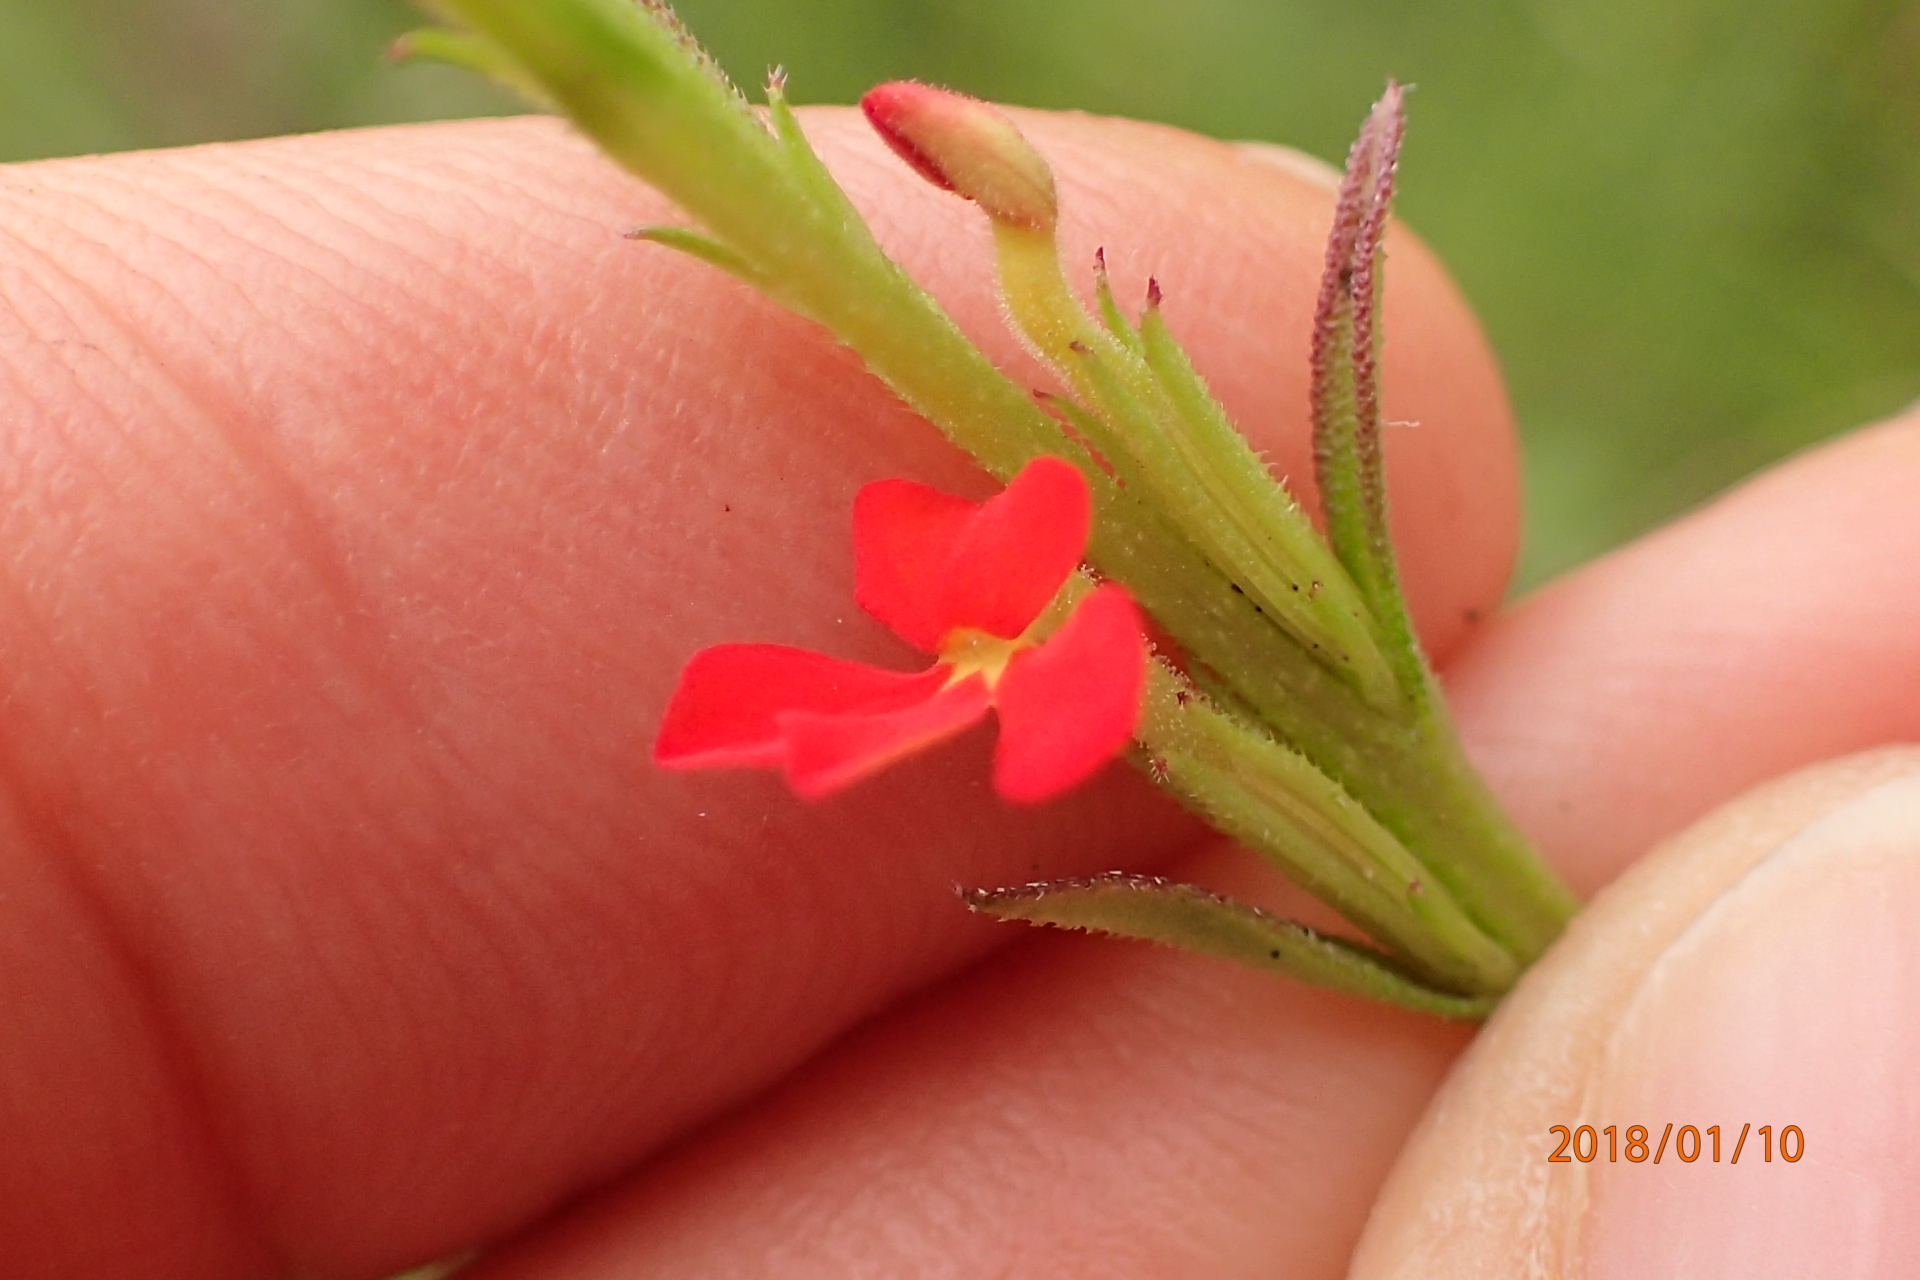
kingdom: Plantae
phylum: Tracheophyta
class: Magnoliopsida
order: Lamiales
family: Orobanchaceae
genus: Striga
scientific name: Striga asiatica
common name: Asiatic witchweed
